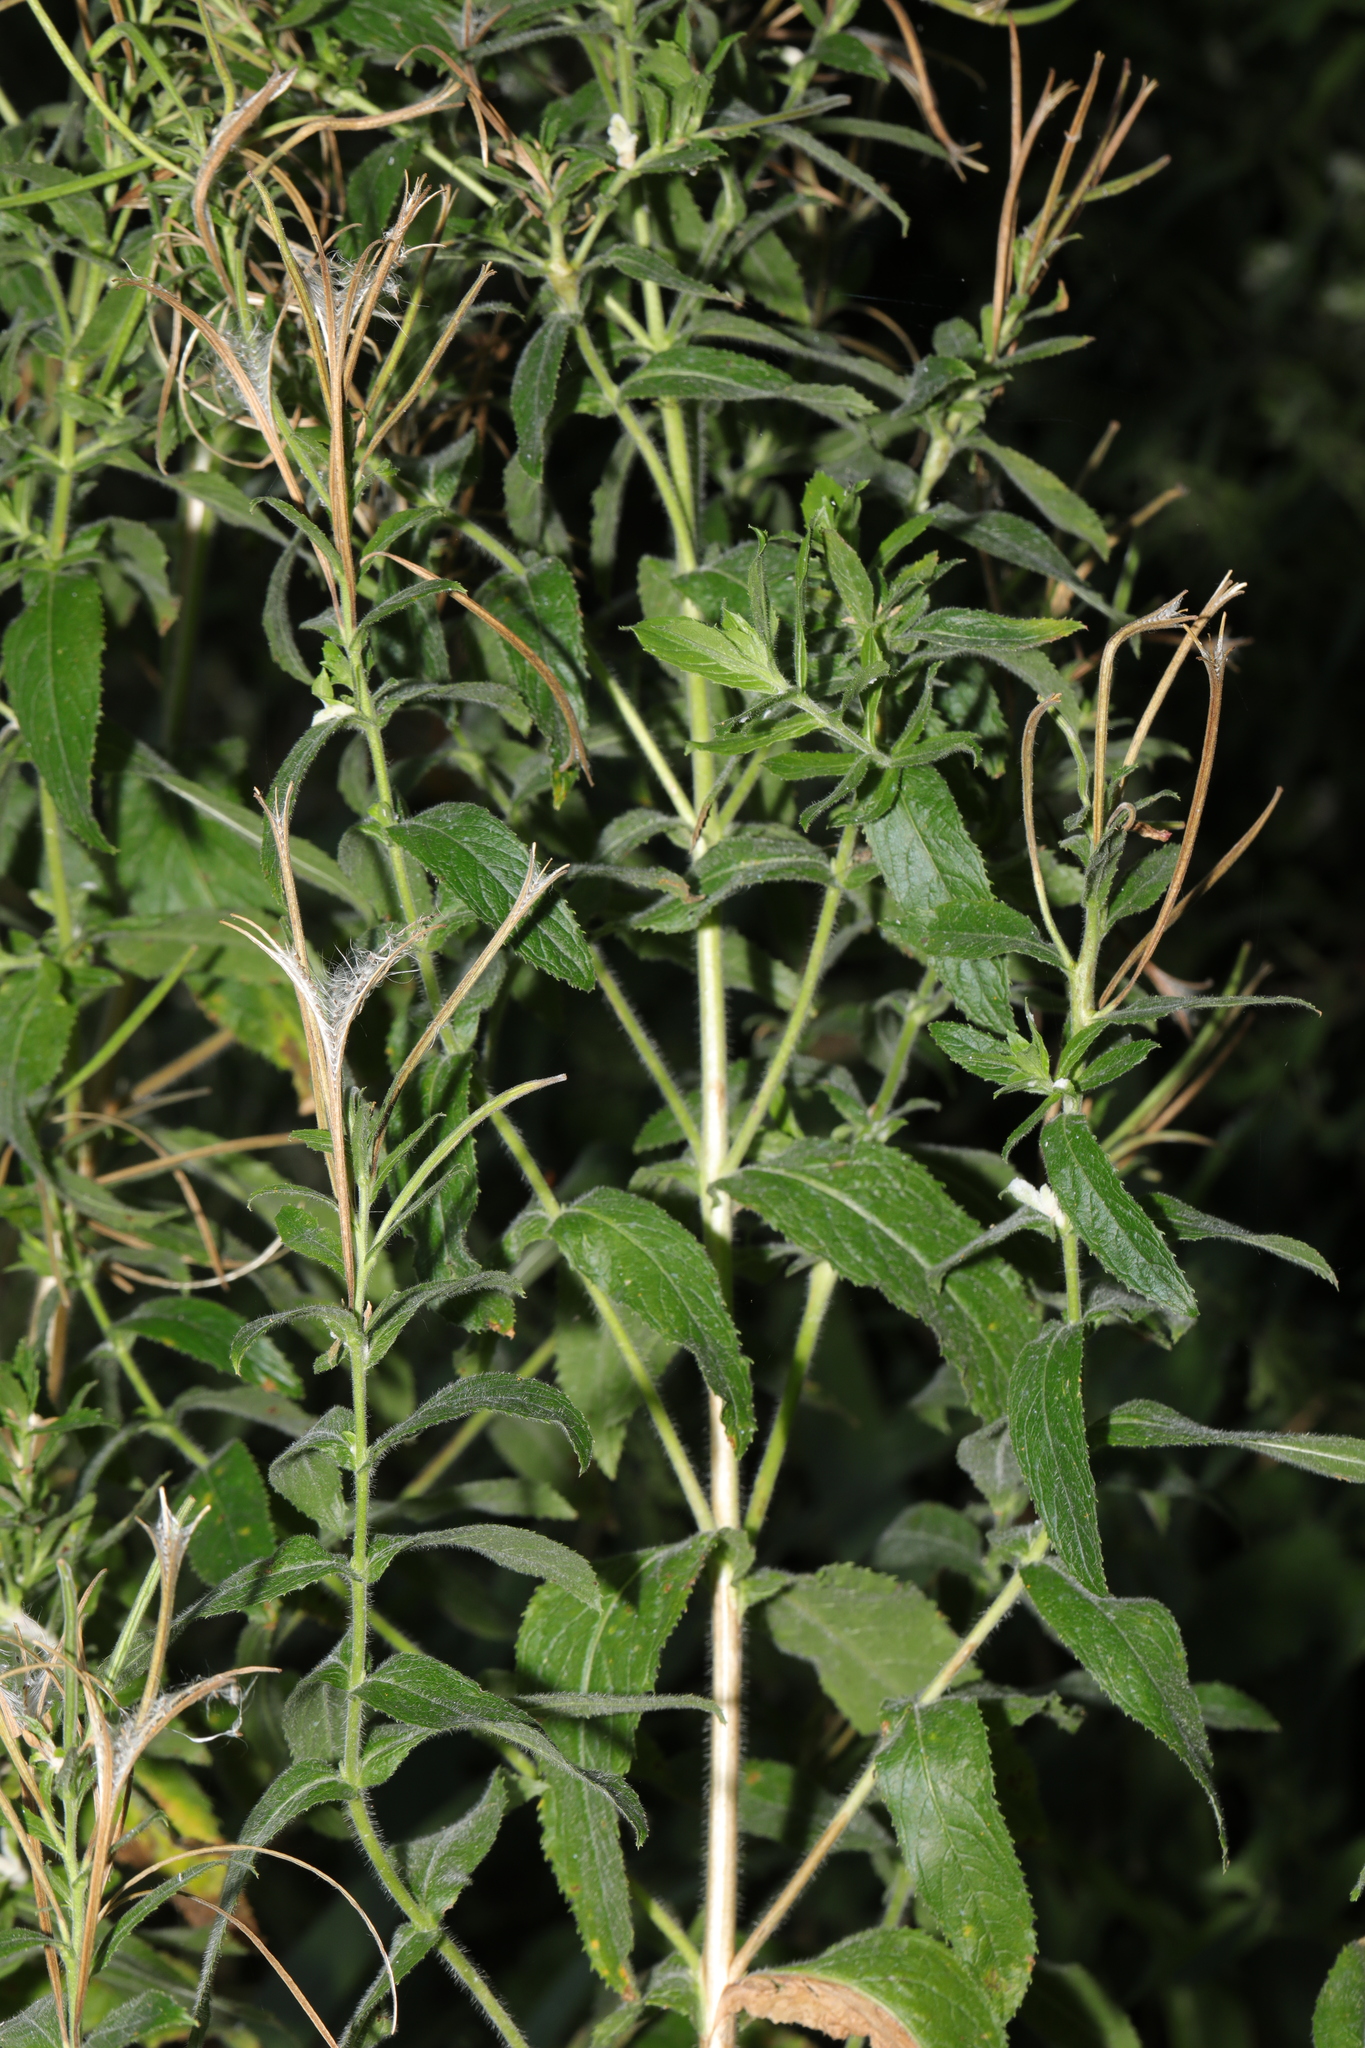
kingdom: Plantae
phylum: Tracheophyta
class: Magnoliopsida
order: Myrtales
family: Onagraceae
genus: Epilobium
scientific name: Epilobium hirsutum
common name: Great willowherb
